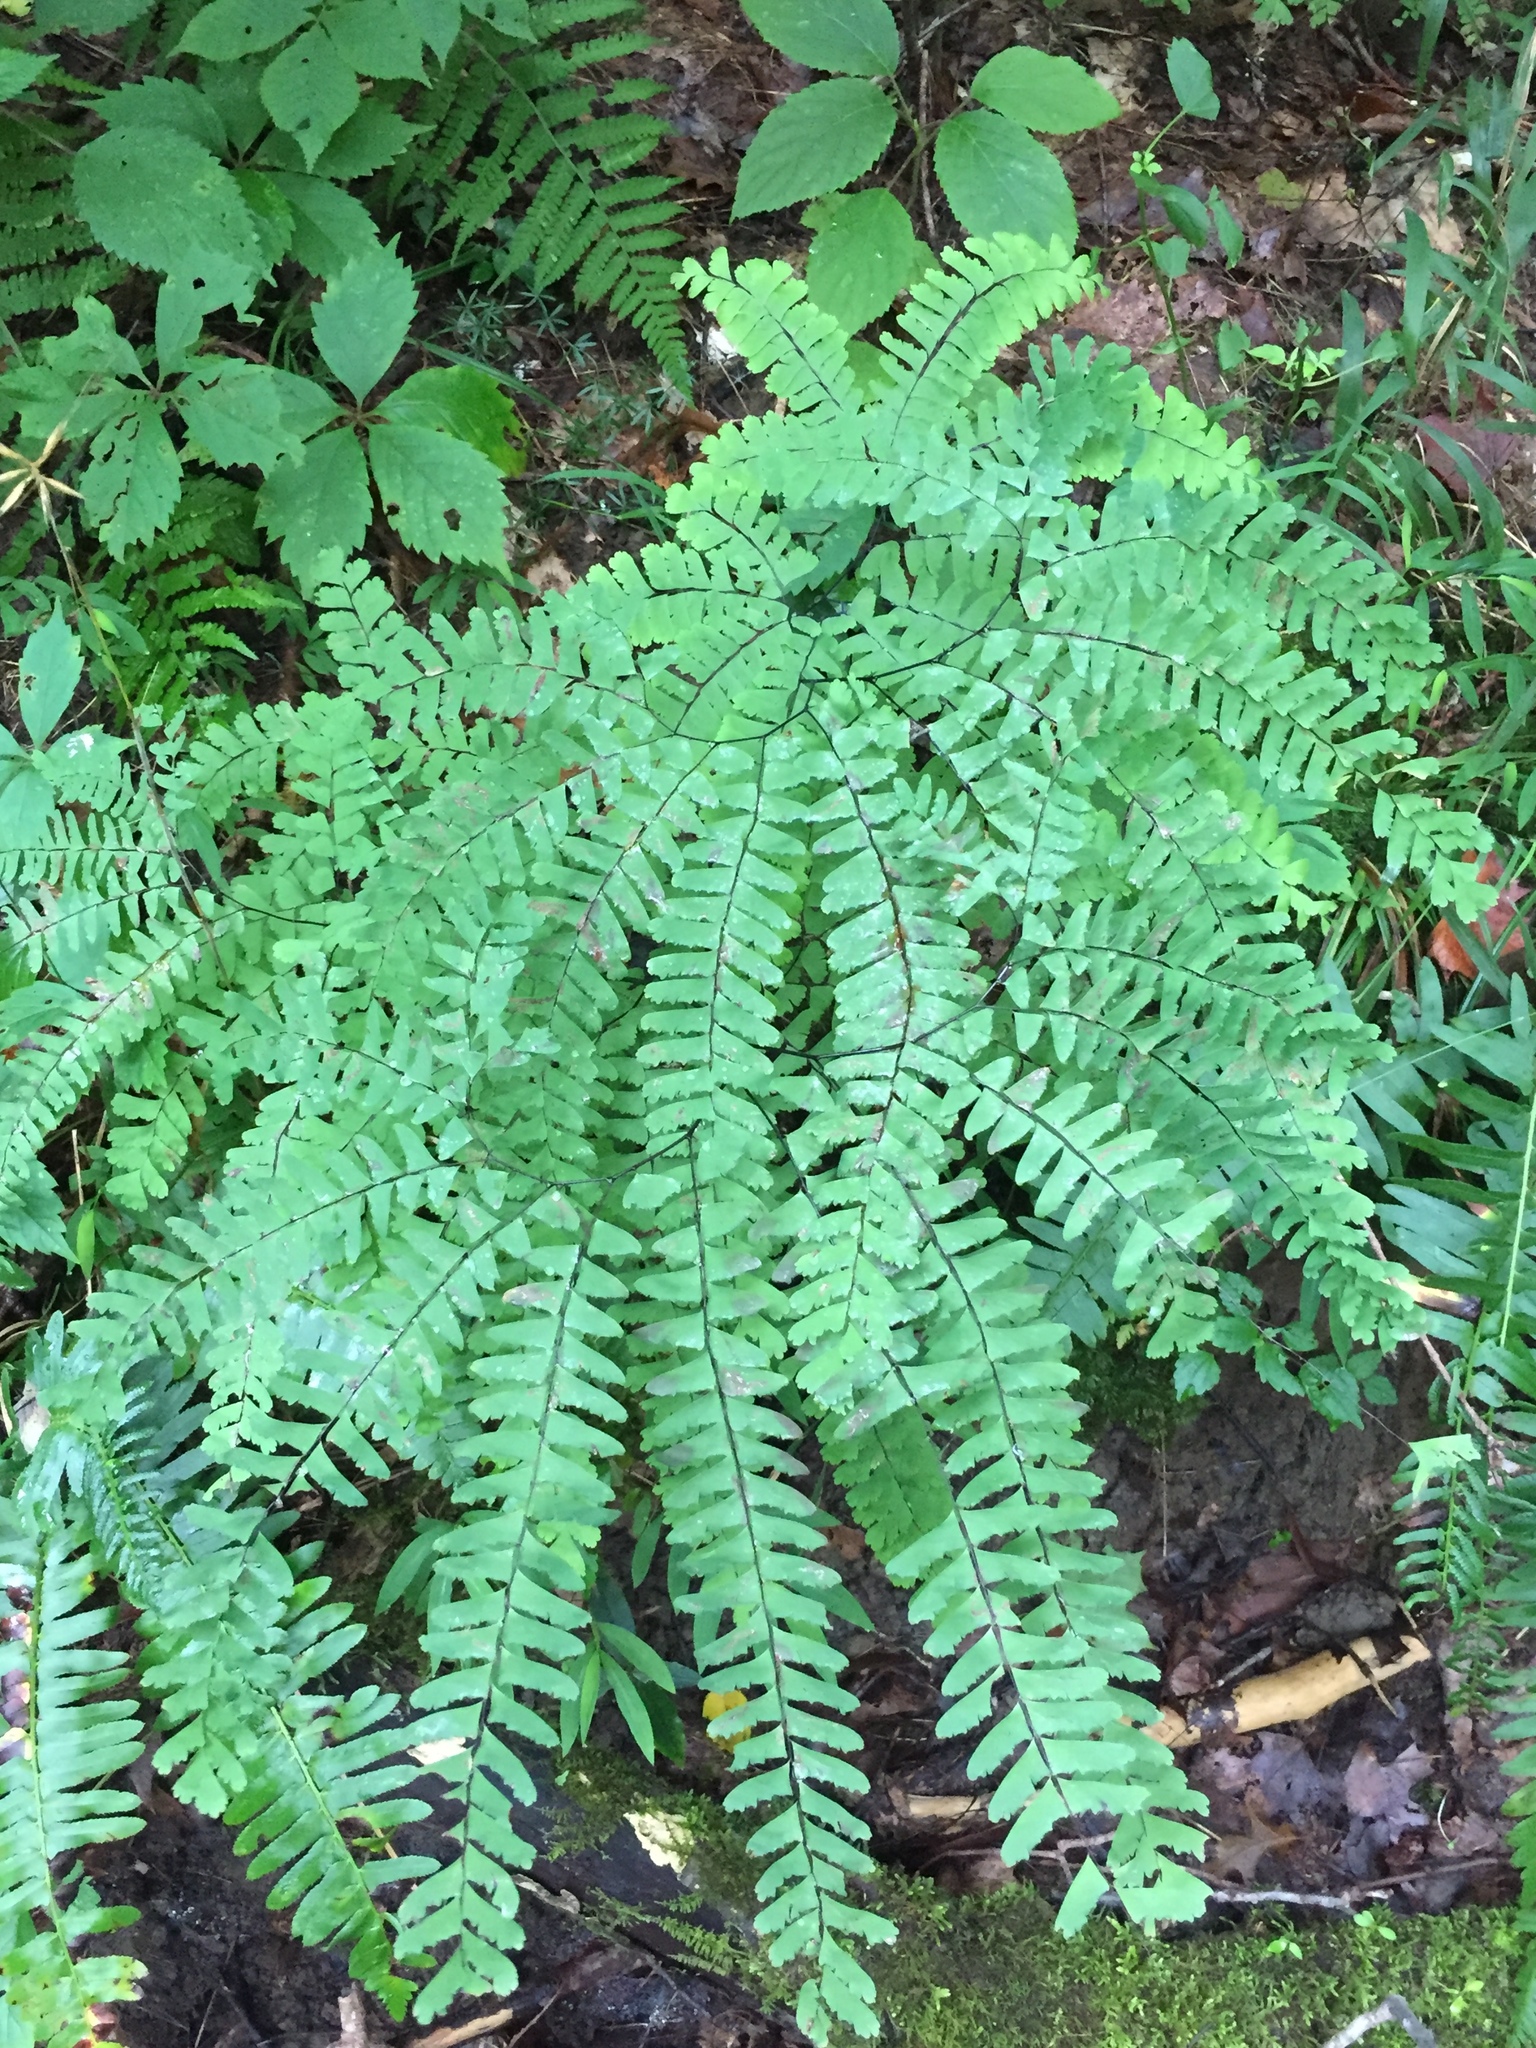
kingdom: Plantae
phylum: Tracheophyta
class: Polypodiopsida
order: Polypodiales
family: Pteridaceae
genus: Adiantum
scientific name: Adiantum pedatum
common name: Five-finger fern
